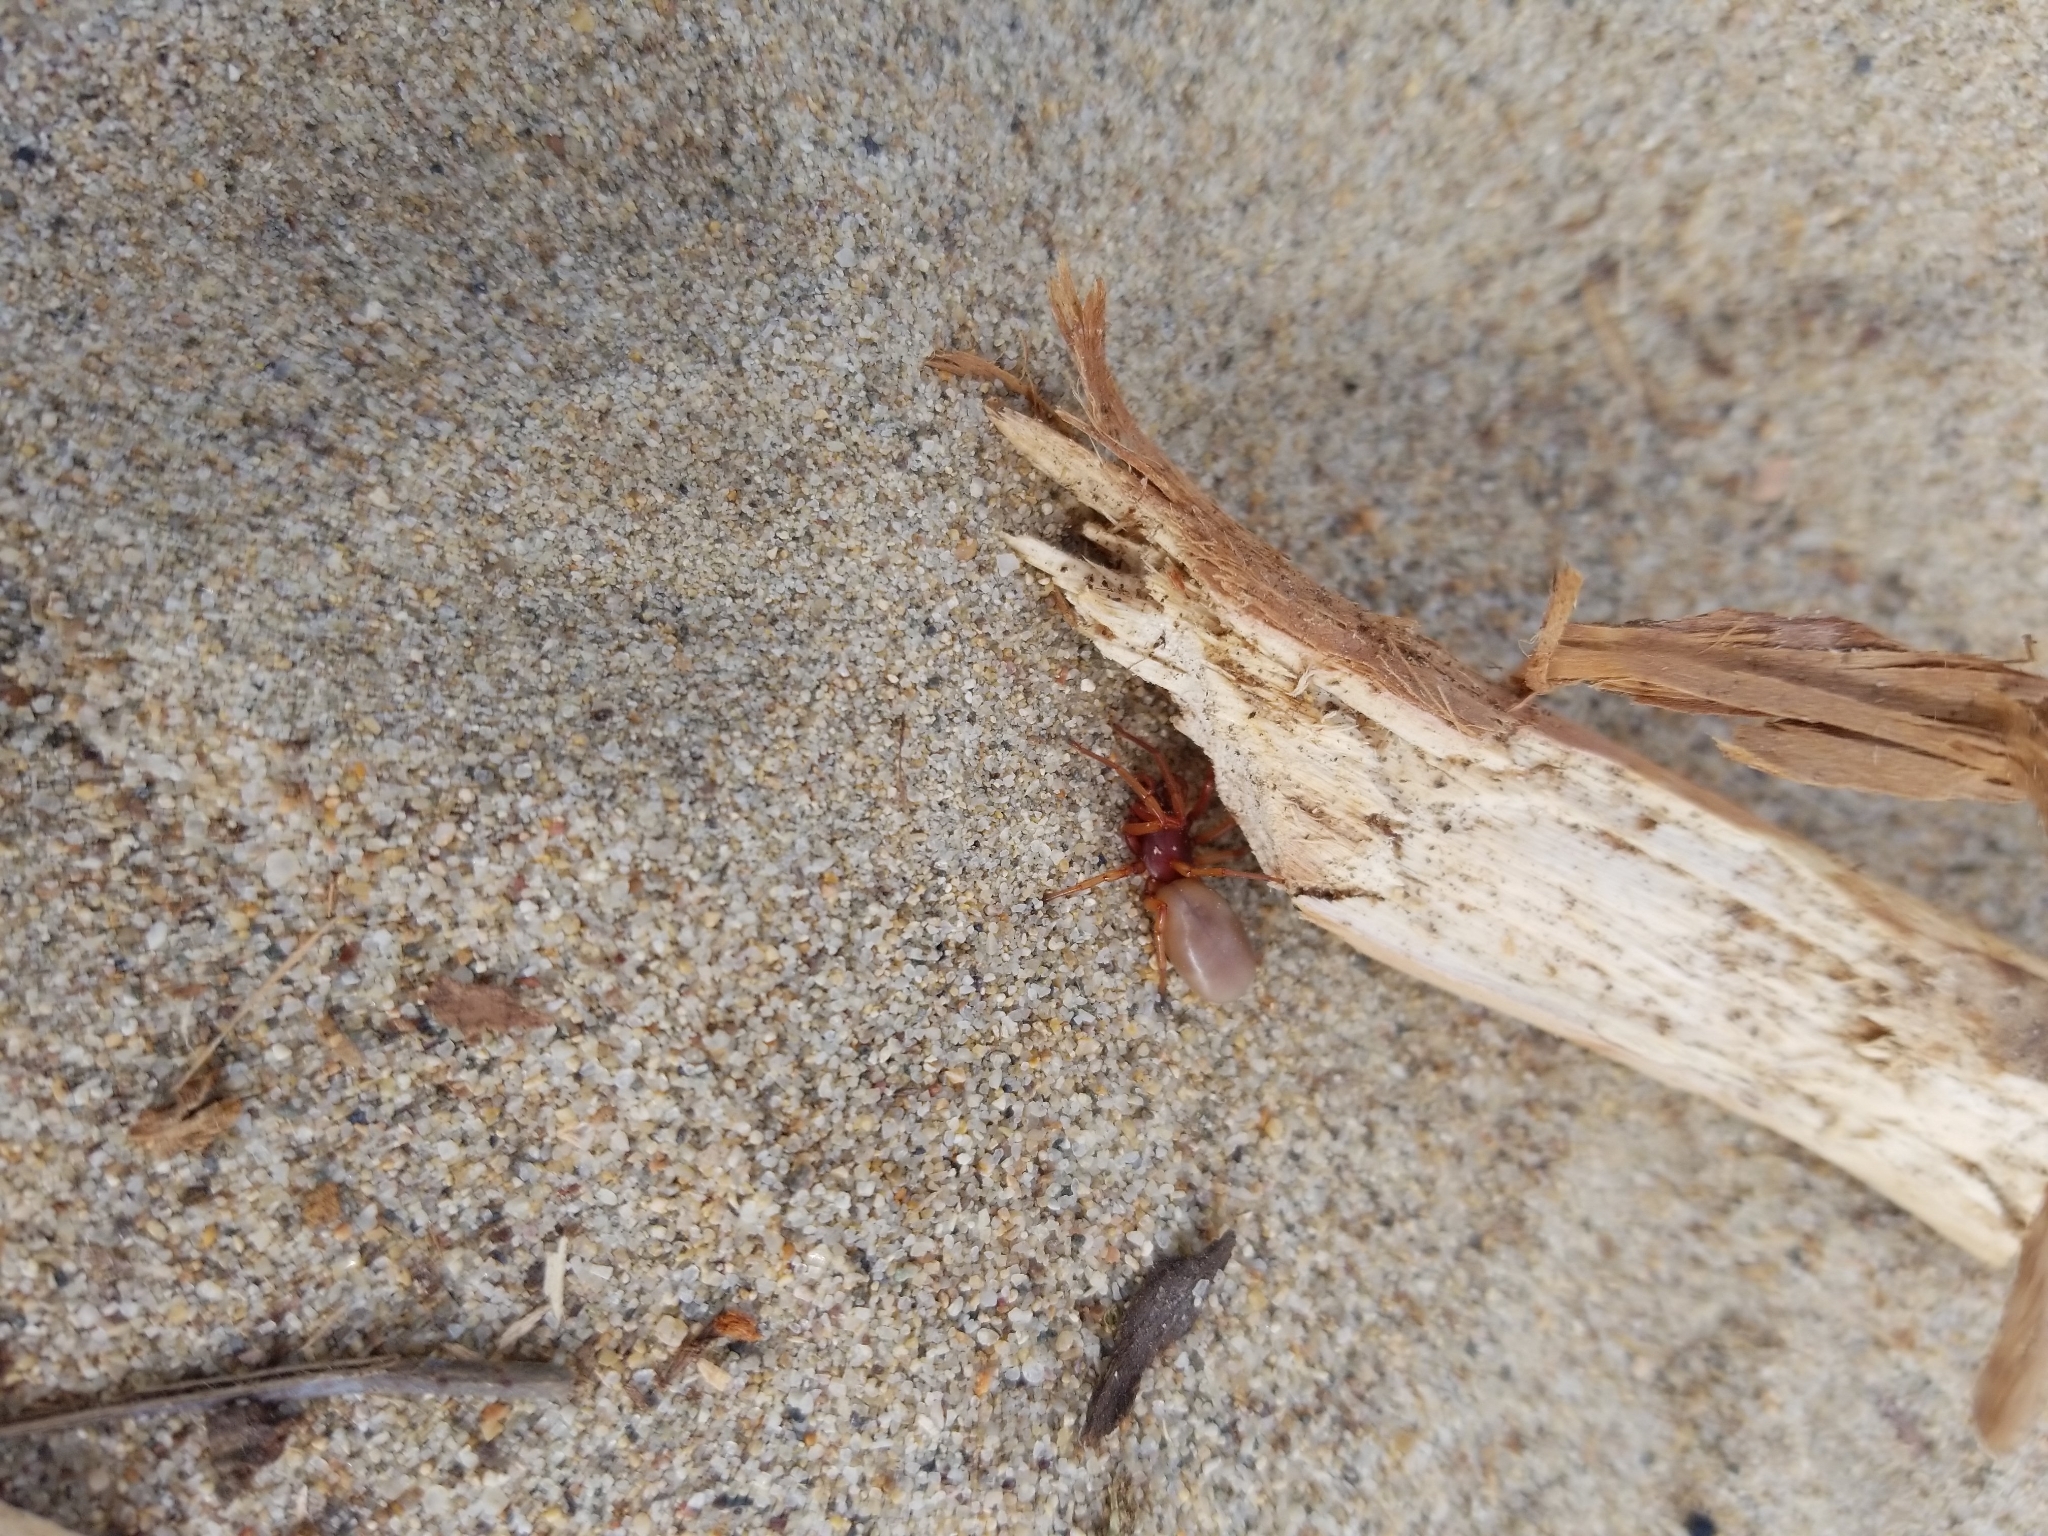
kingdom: Animalia
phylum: Arthropoda
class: Arachnida
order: Araneae
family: Dysderidae
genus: Dysdera
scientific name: Dysdera crocata
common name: Woodlouse spider
